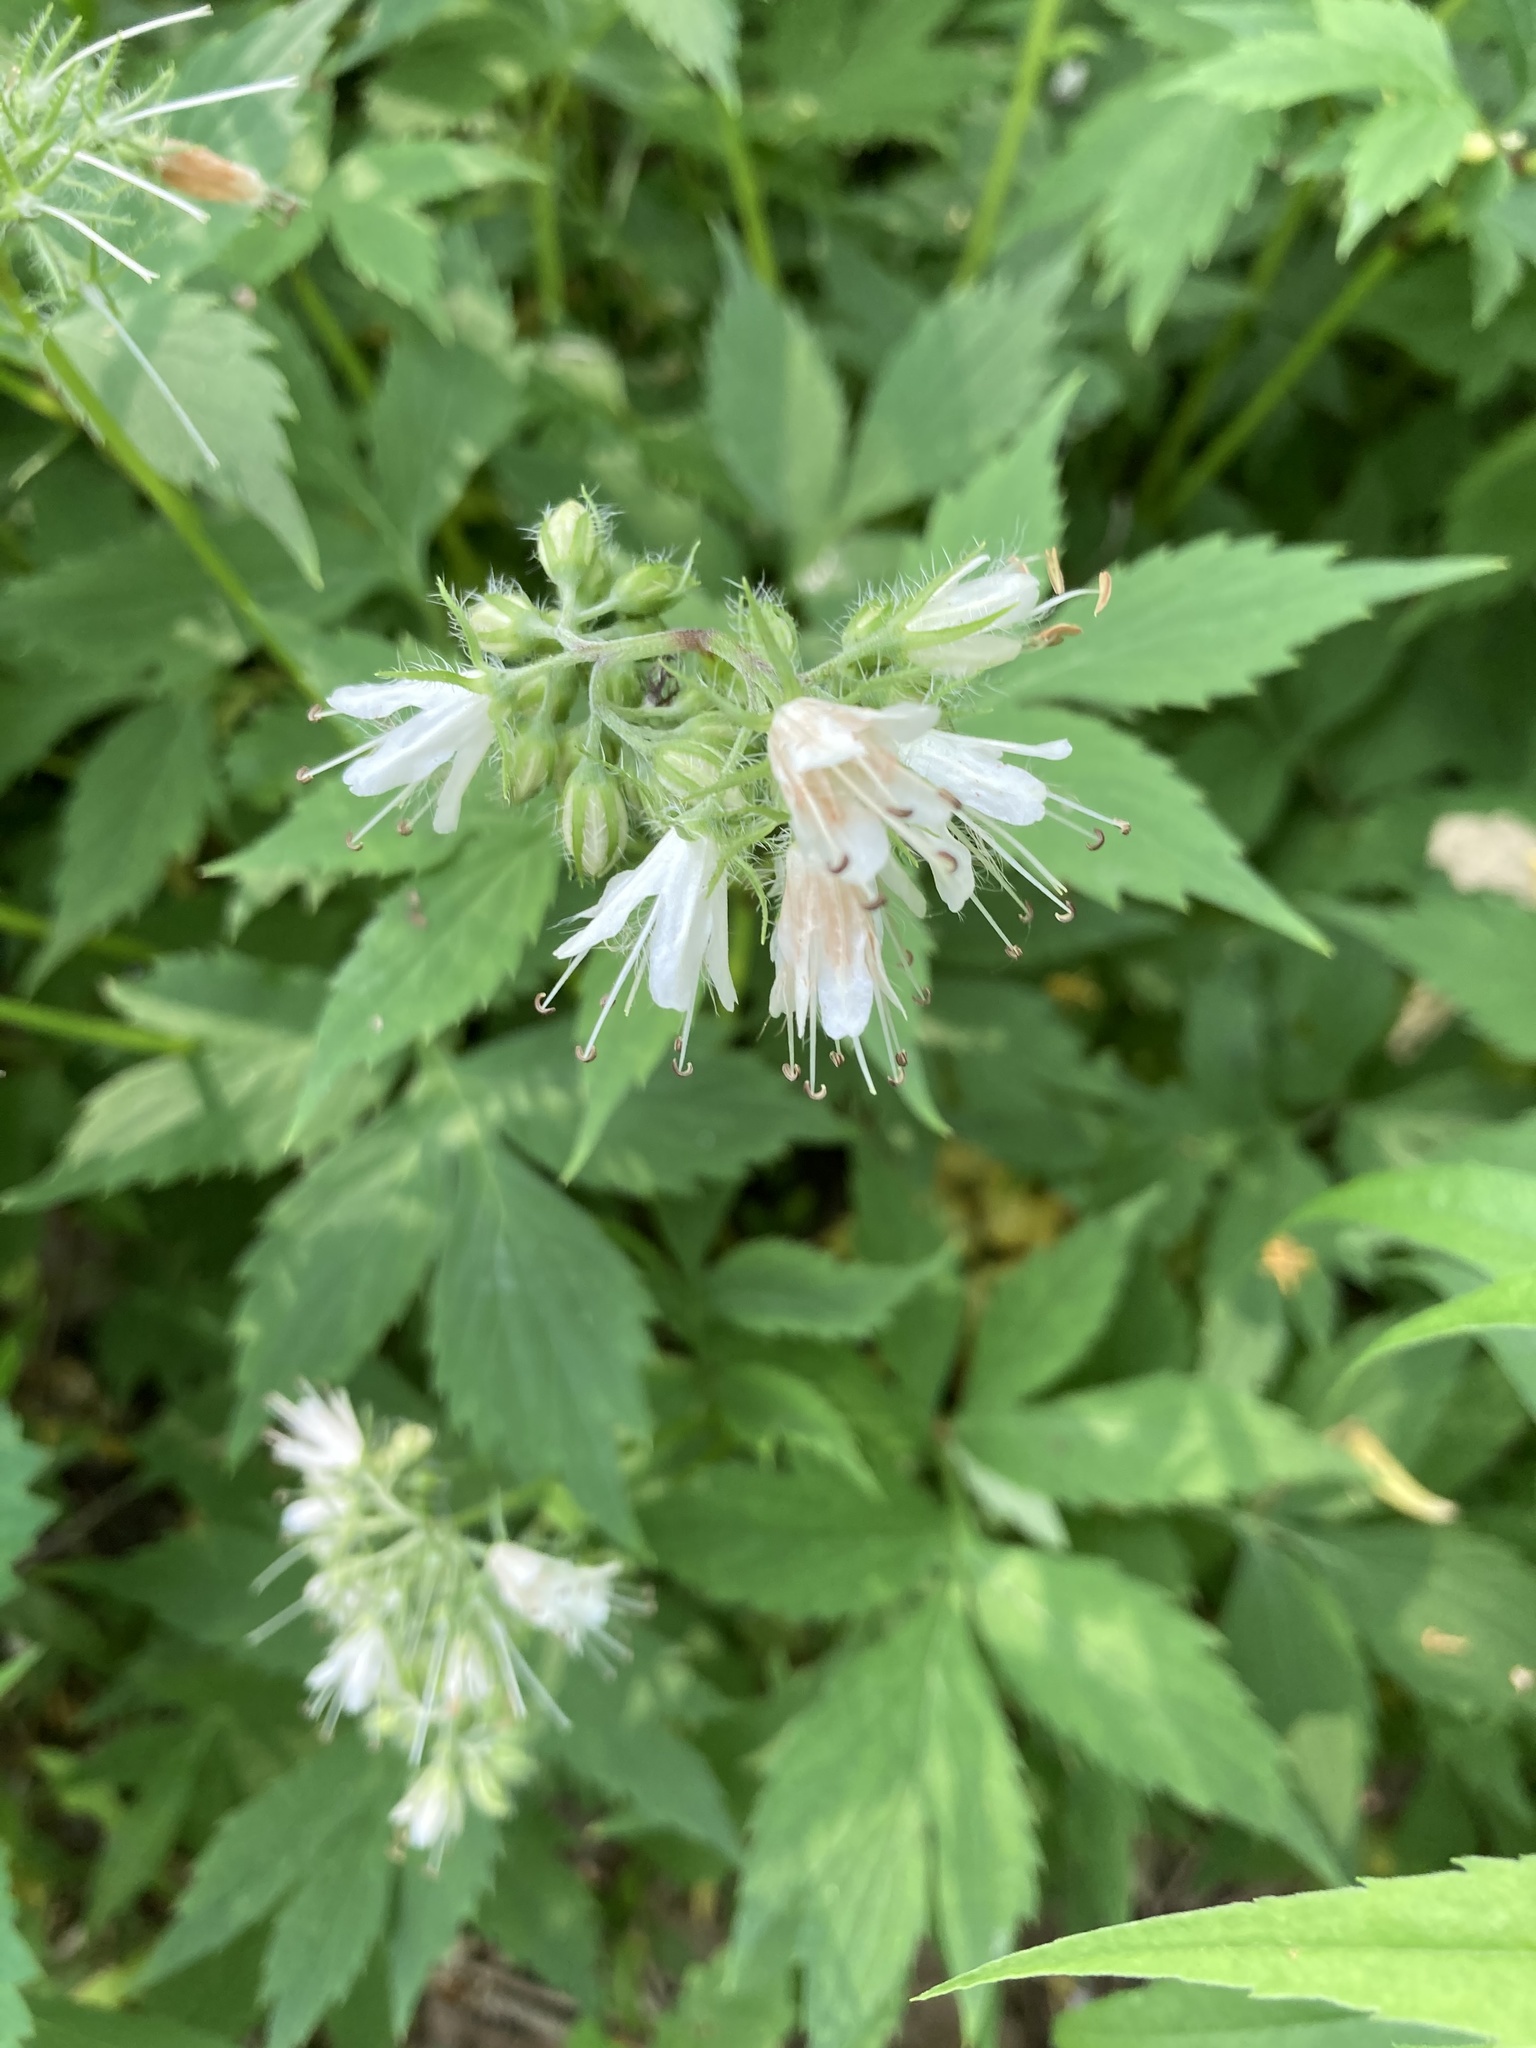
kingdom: Plantae
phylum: Tracheophyta
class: Magnoliopsida
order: Boraginales
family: Hydrophyllaceae
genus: Hydrophyllum
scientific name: Hydrophyllum virginianum
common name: Virginia waterleaf
